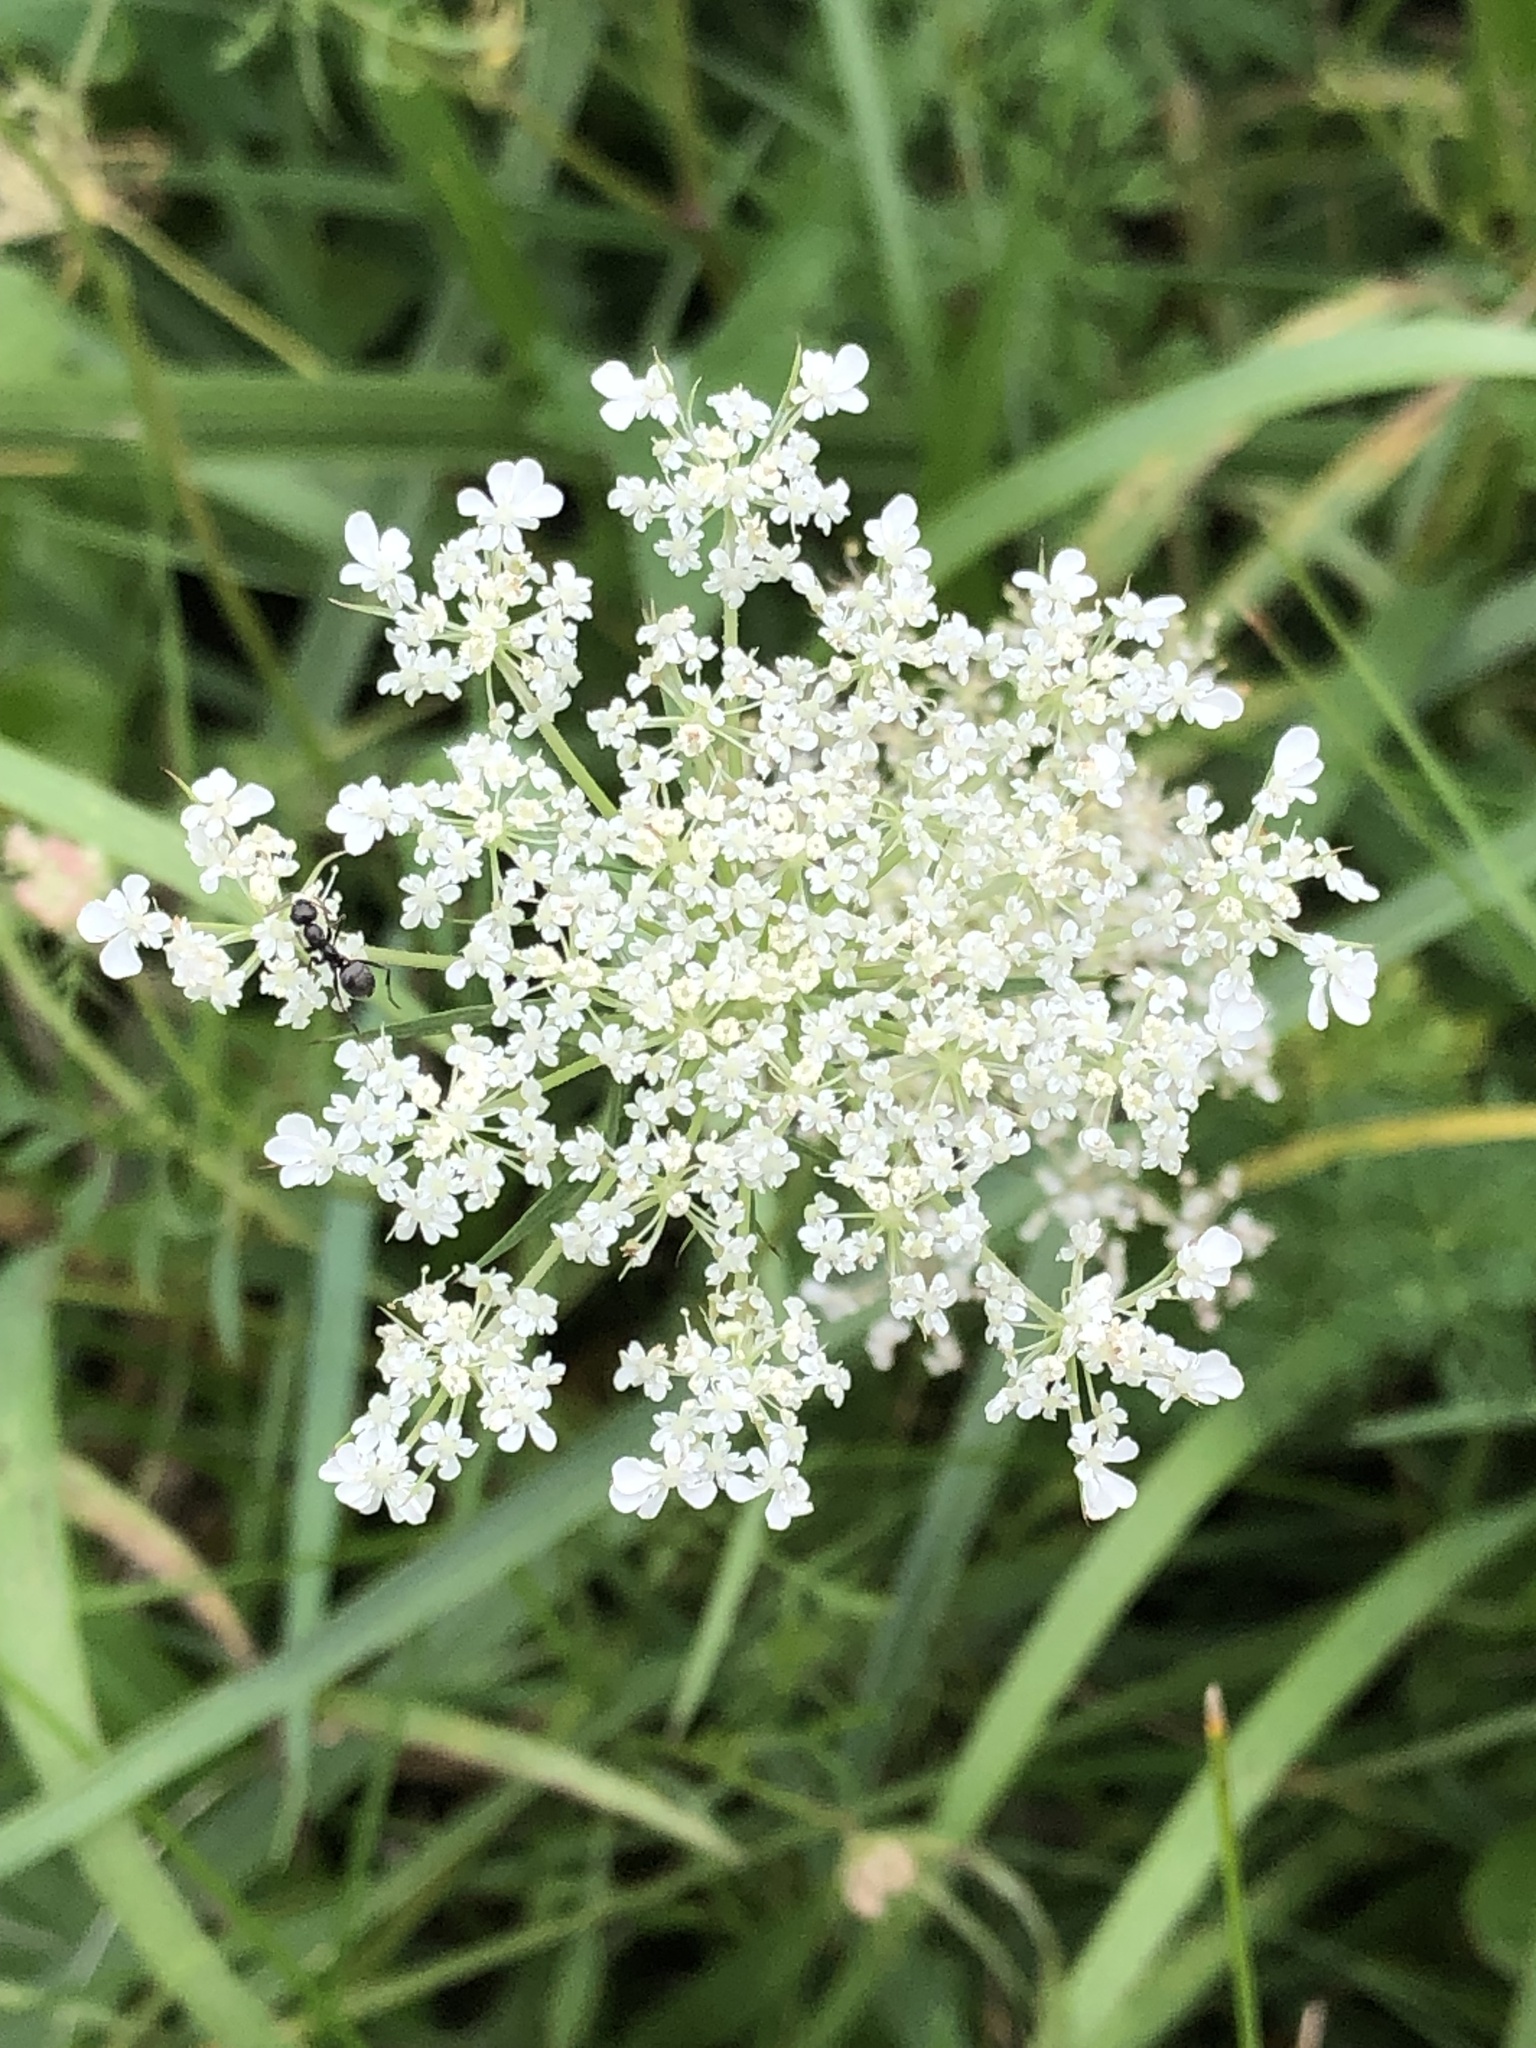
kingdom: Plantae
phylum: Tracheophyta
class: Magnoliopsida
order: Apiales
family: Apiaceae
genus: Daucus
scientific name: Daucus carota
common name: Wild carrot
